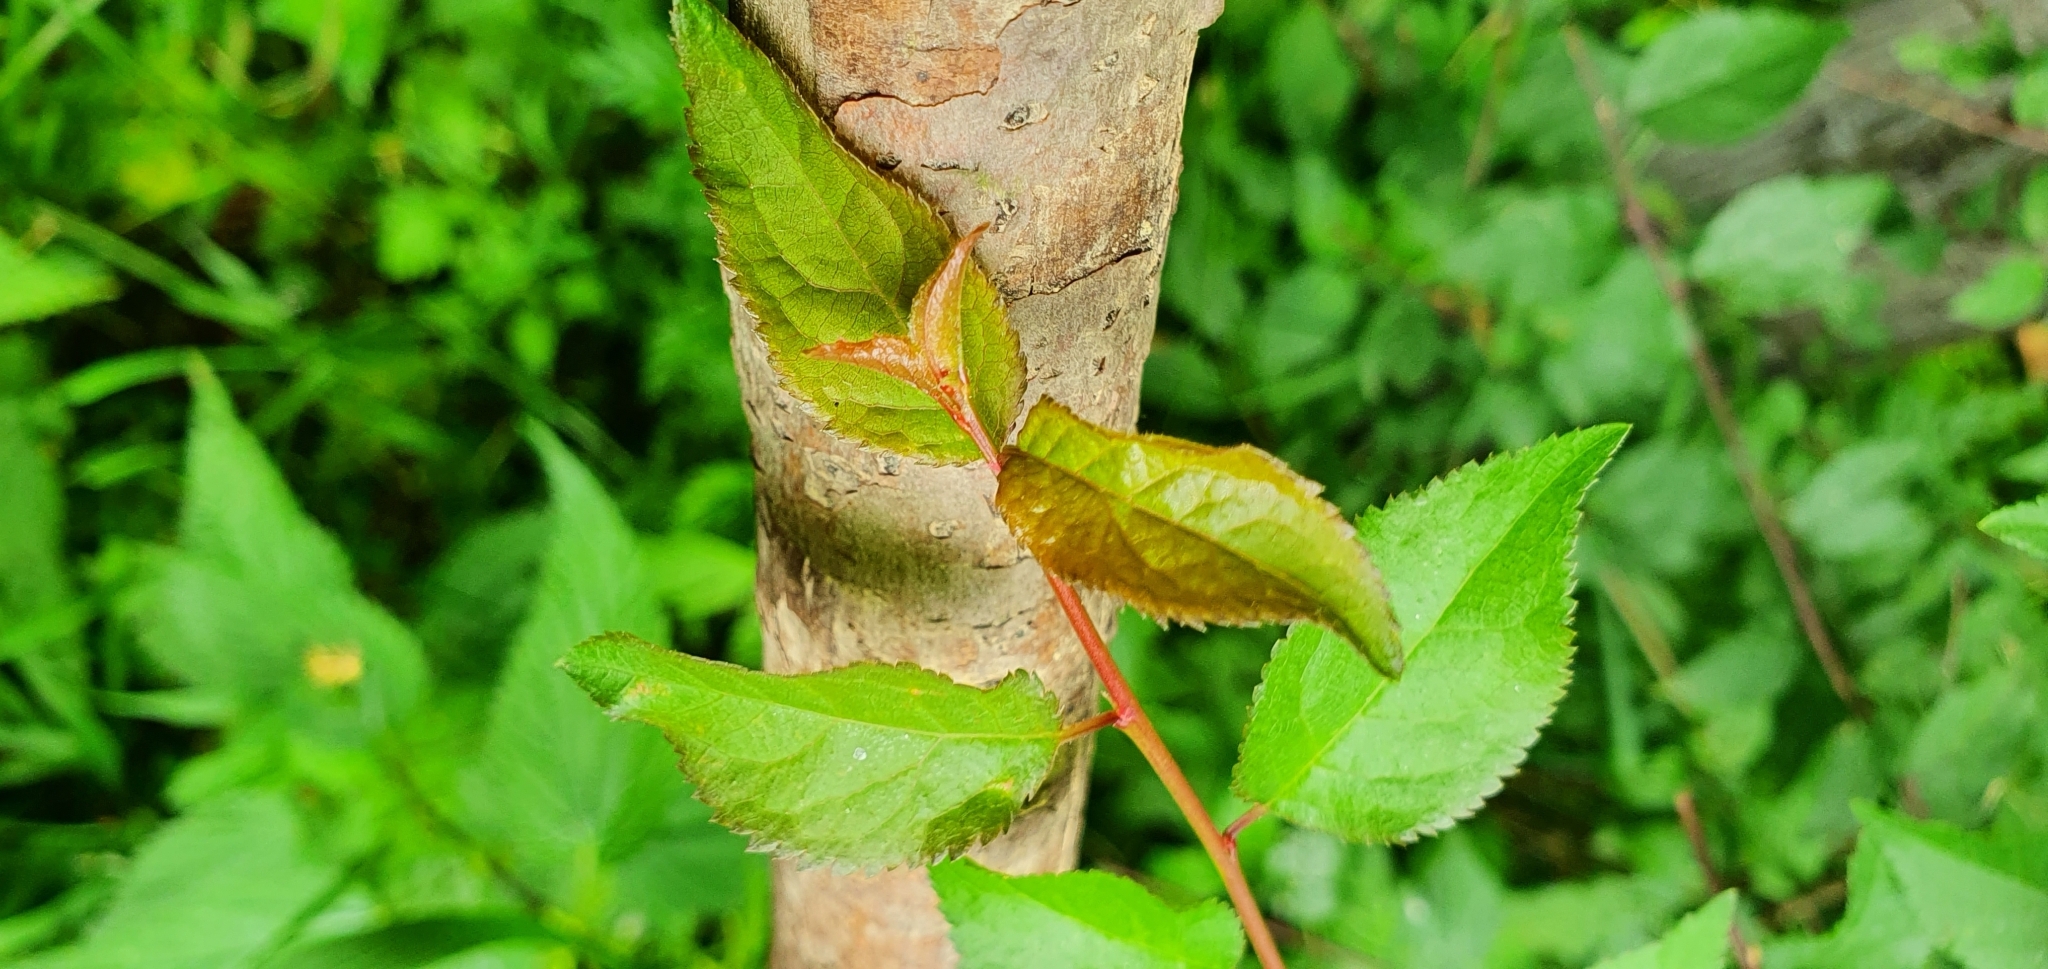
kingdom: Plantae
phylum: Tracheophyta
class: Magnoliopsida
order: Rosales
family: Rosaceae
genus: Prunus
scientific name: Prunus cerasifera
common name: Cherry plum
